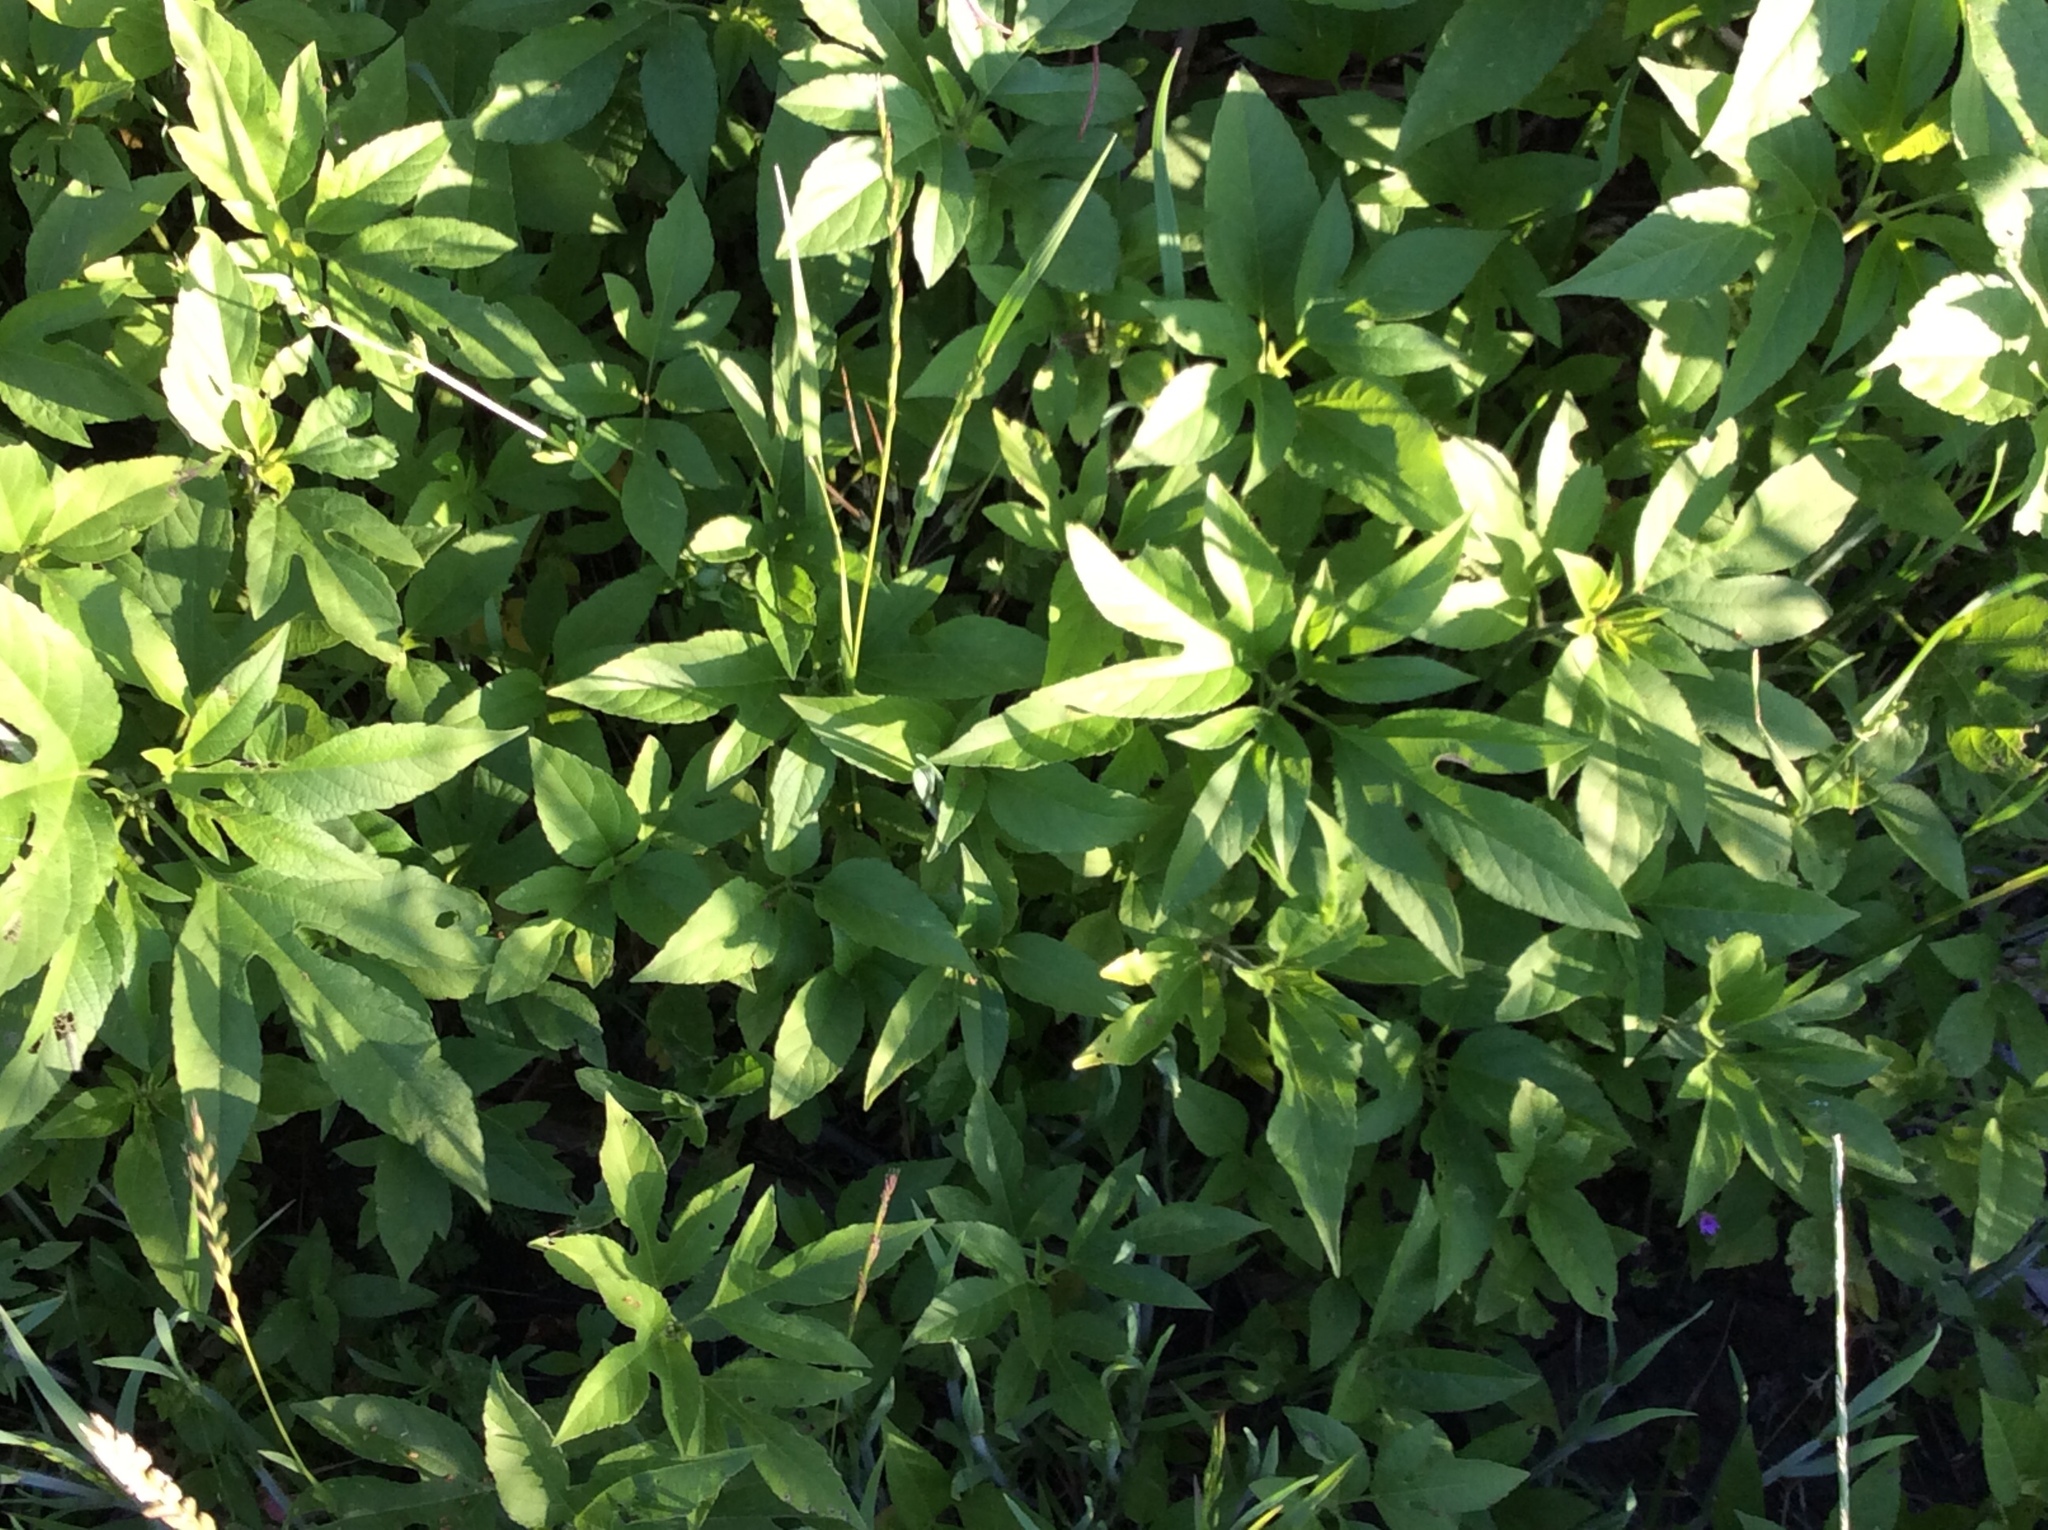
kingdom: Plantae
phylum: Tracheophyta
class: Magnoliopsida
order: Asterales
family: Asteraceae
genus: Ambrosia
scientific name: Ambrosia trifida
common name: Giant ragweed
